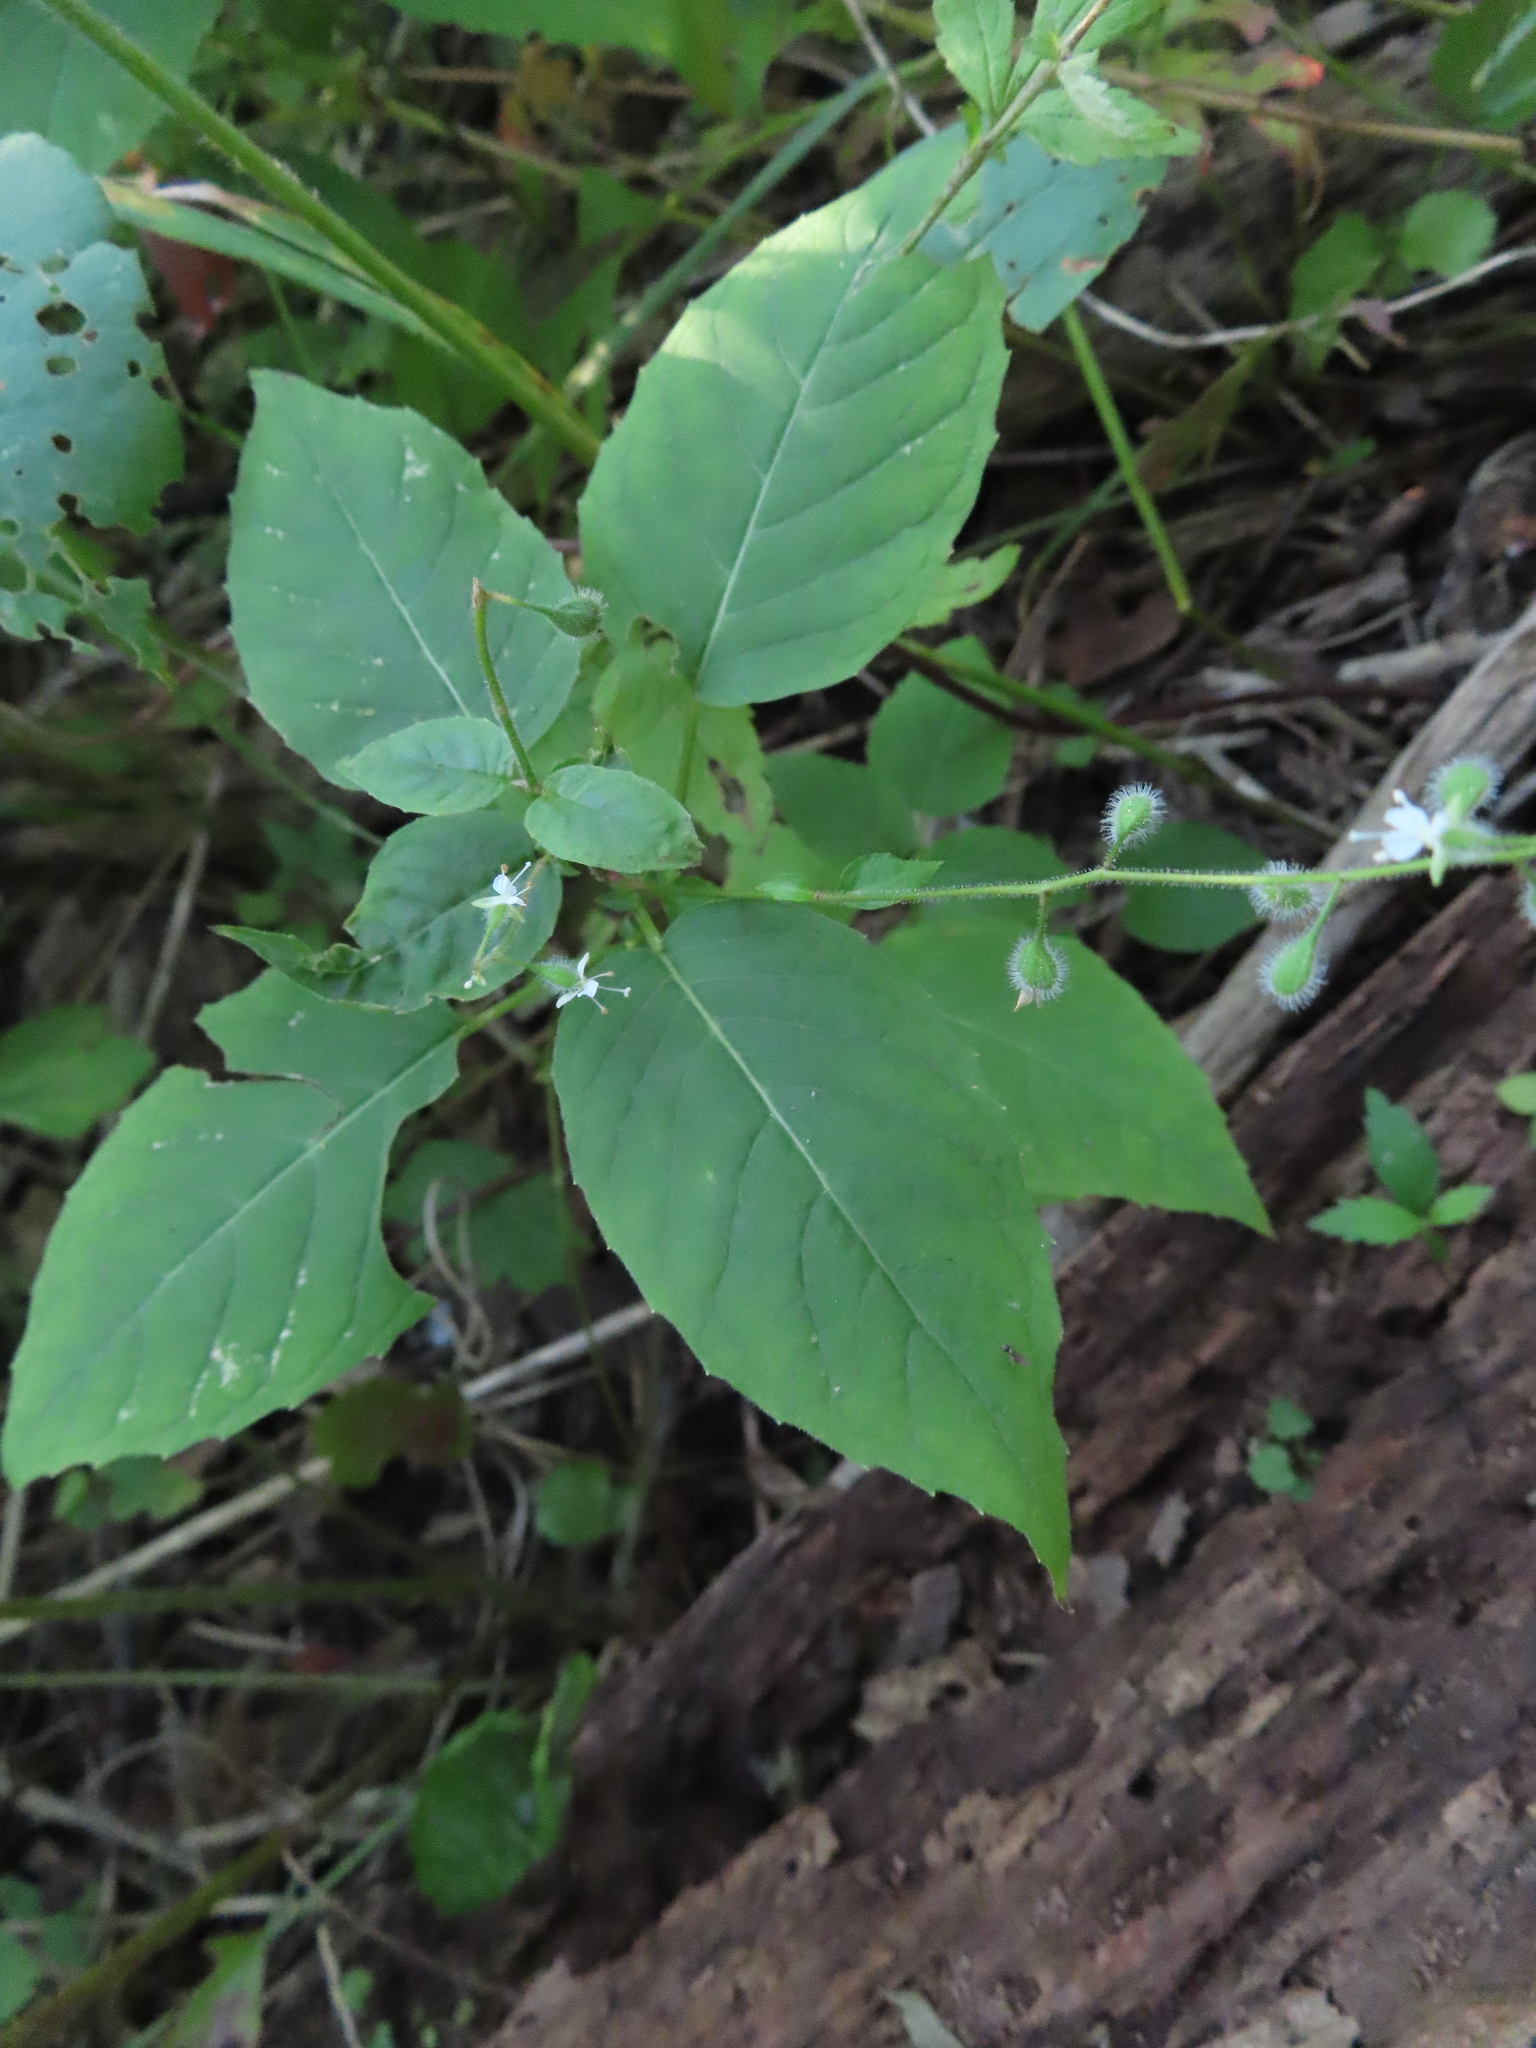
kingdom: Plantae
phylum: Tracheophyta
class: Magnoliopsida
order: Myrtales
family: Onagraceae
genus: Circaea
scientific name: Circaea canadensis
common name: Broad-leaved enchanter's nightshade
